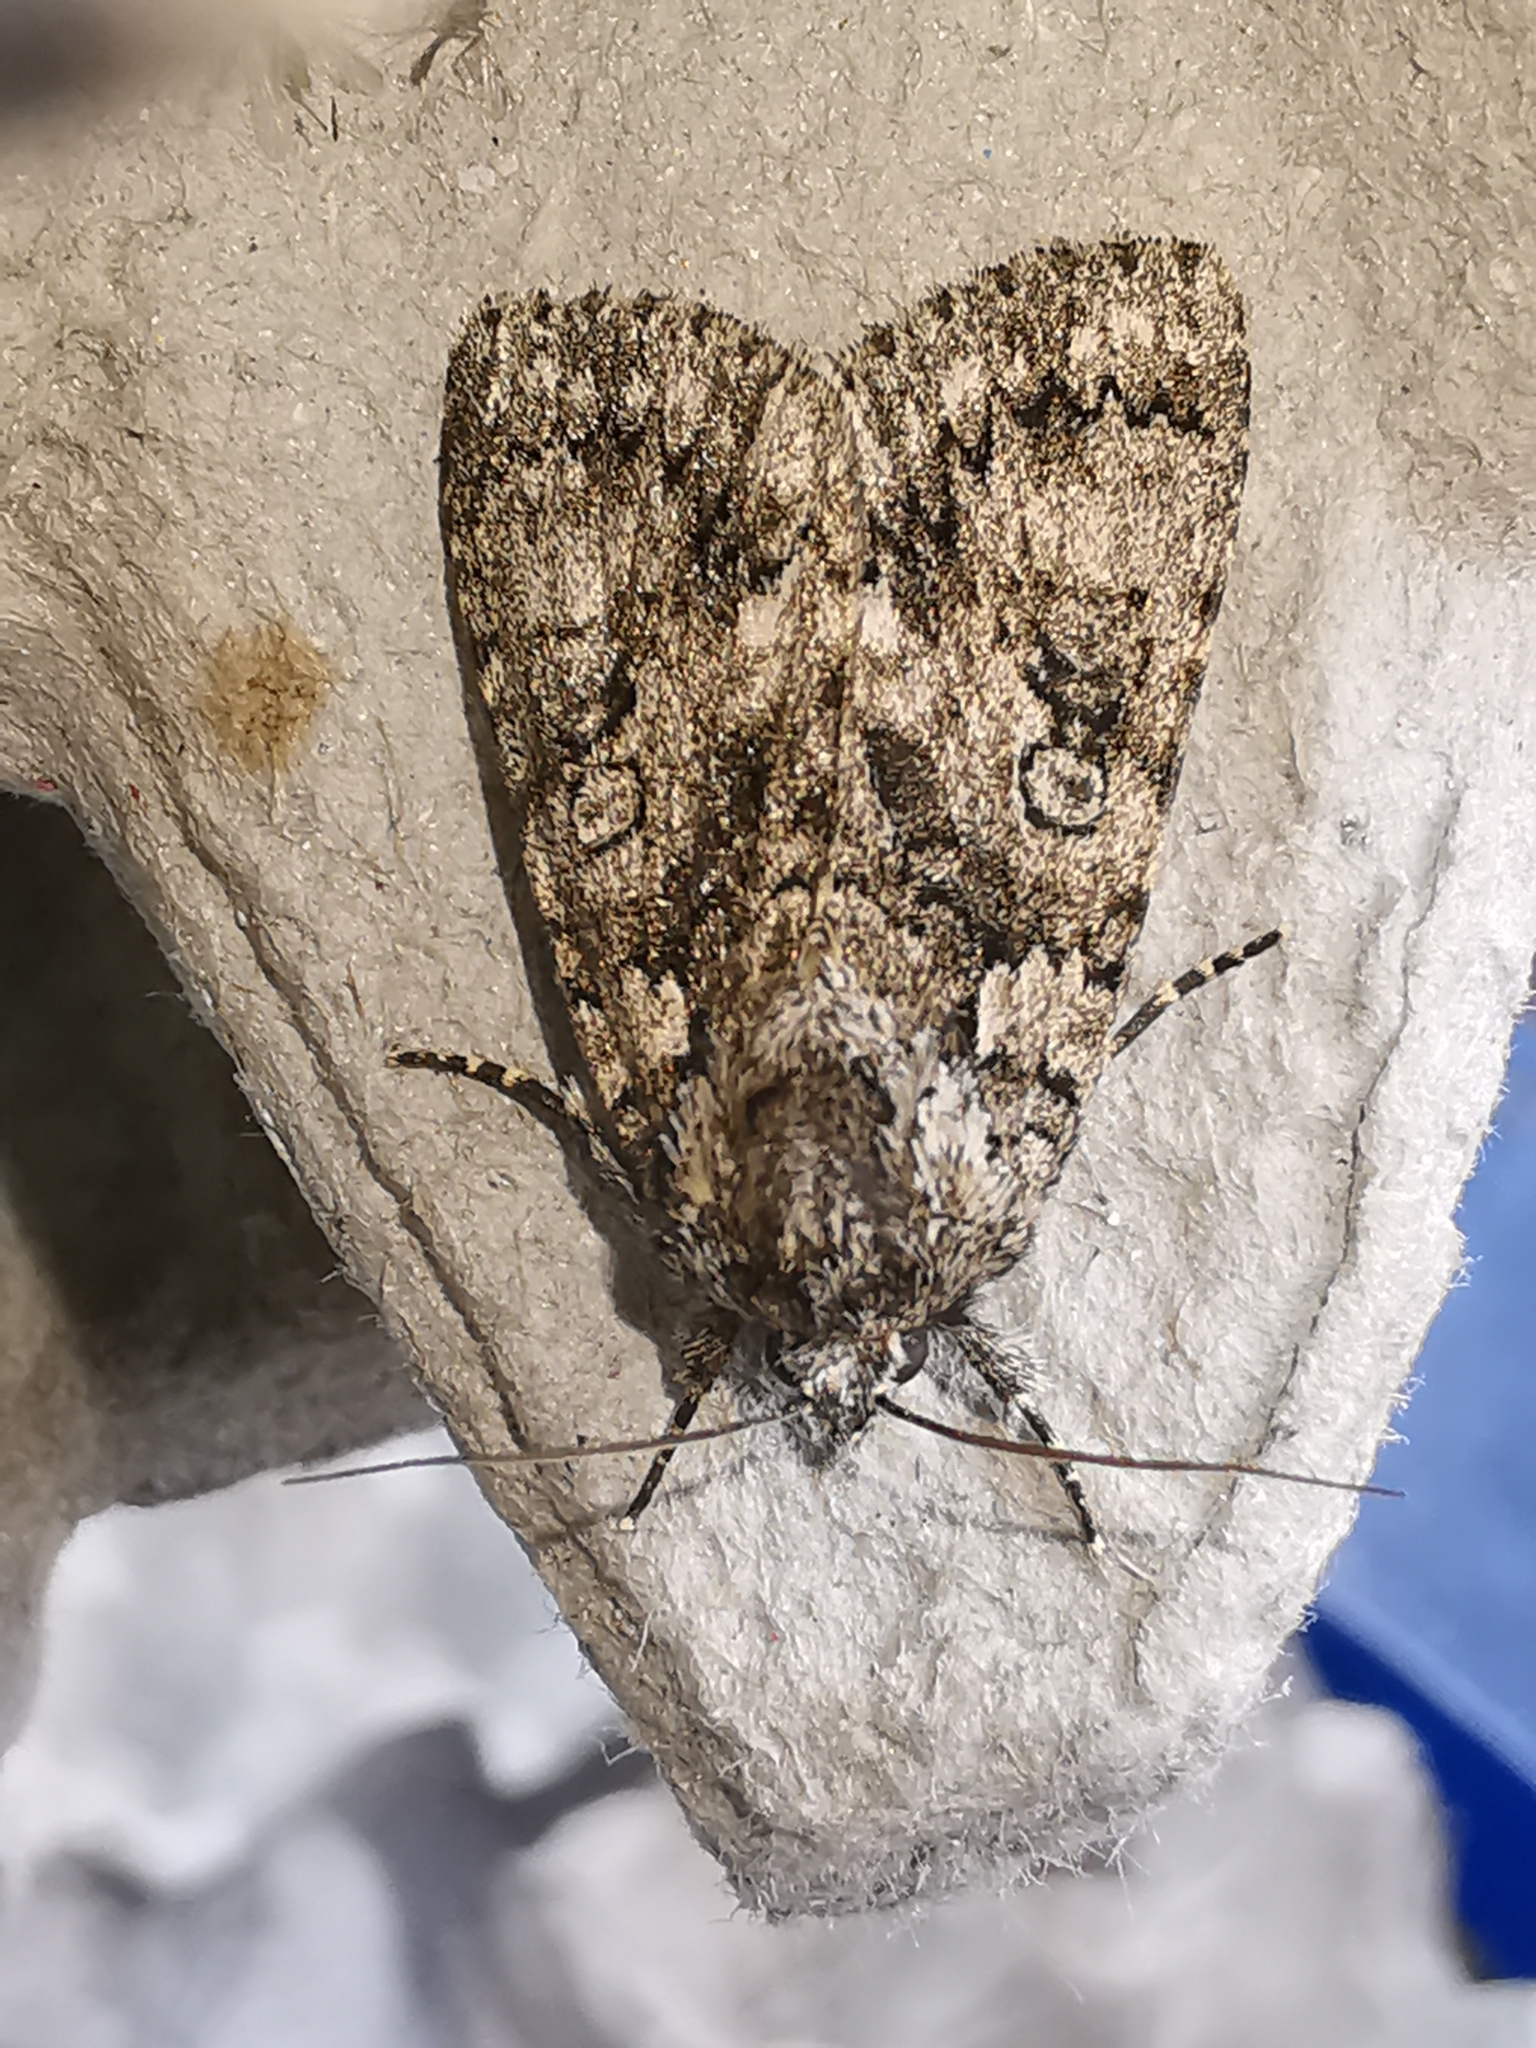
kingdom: Animalia
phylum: Arthropoda
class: Insecta
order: Lepidoptera
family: Noctuidae
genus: Acronicta
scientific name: Acronicta rumicis
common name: Knot grass
